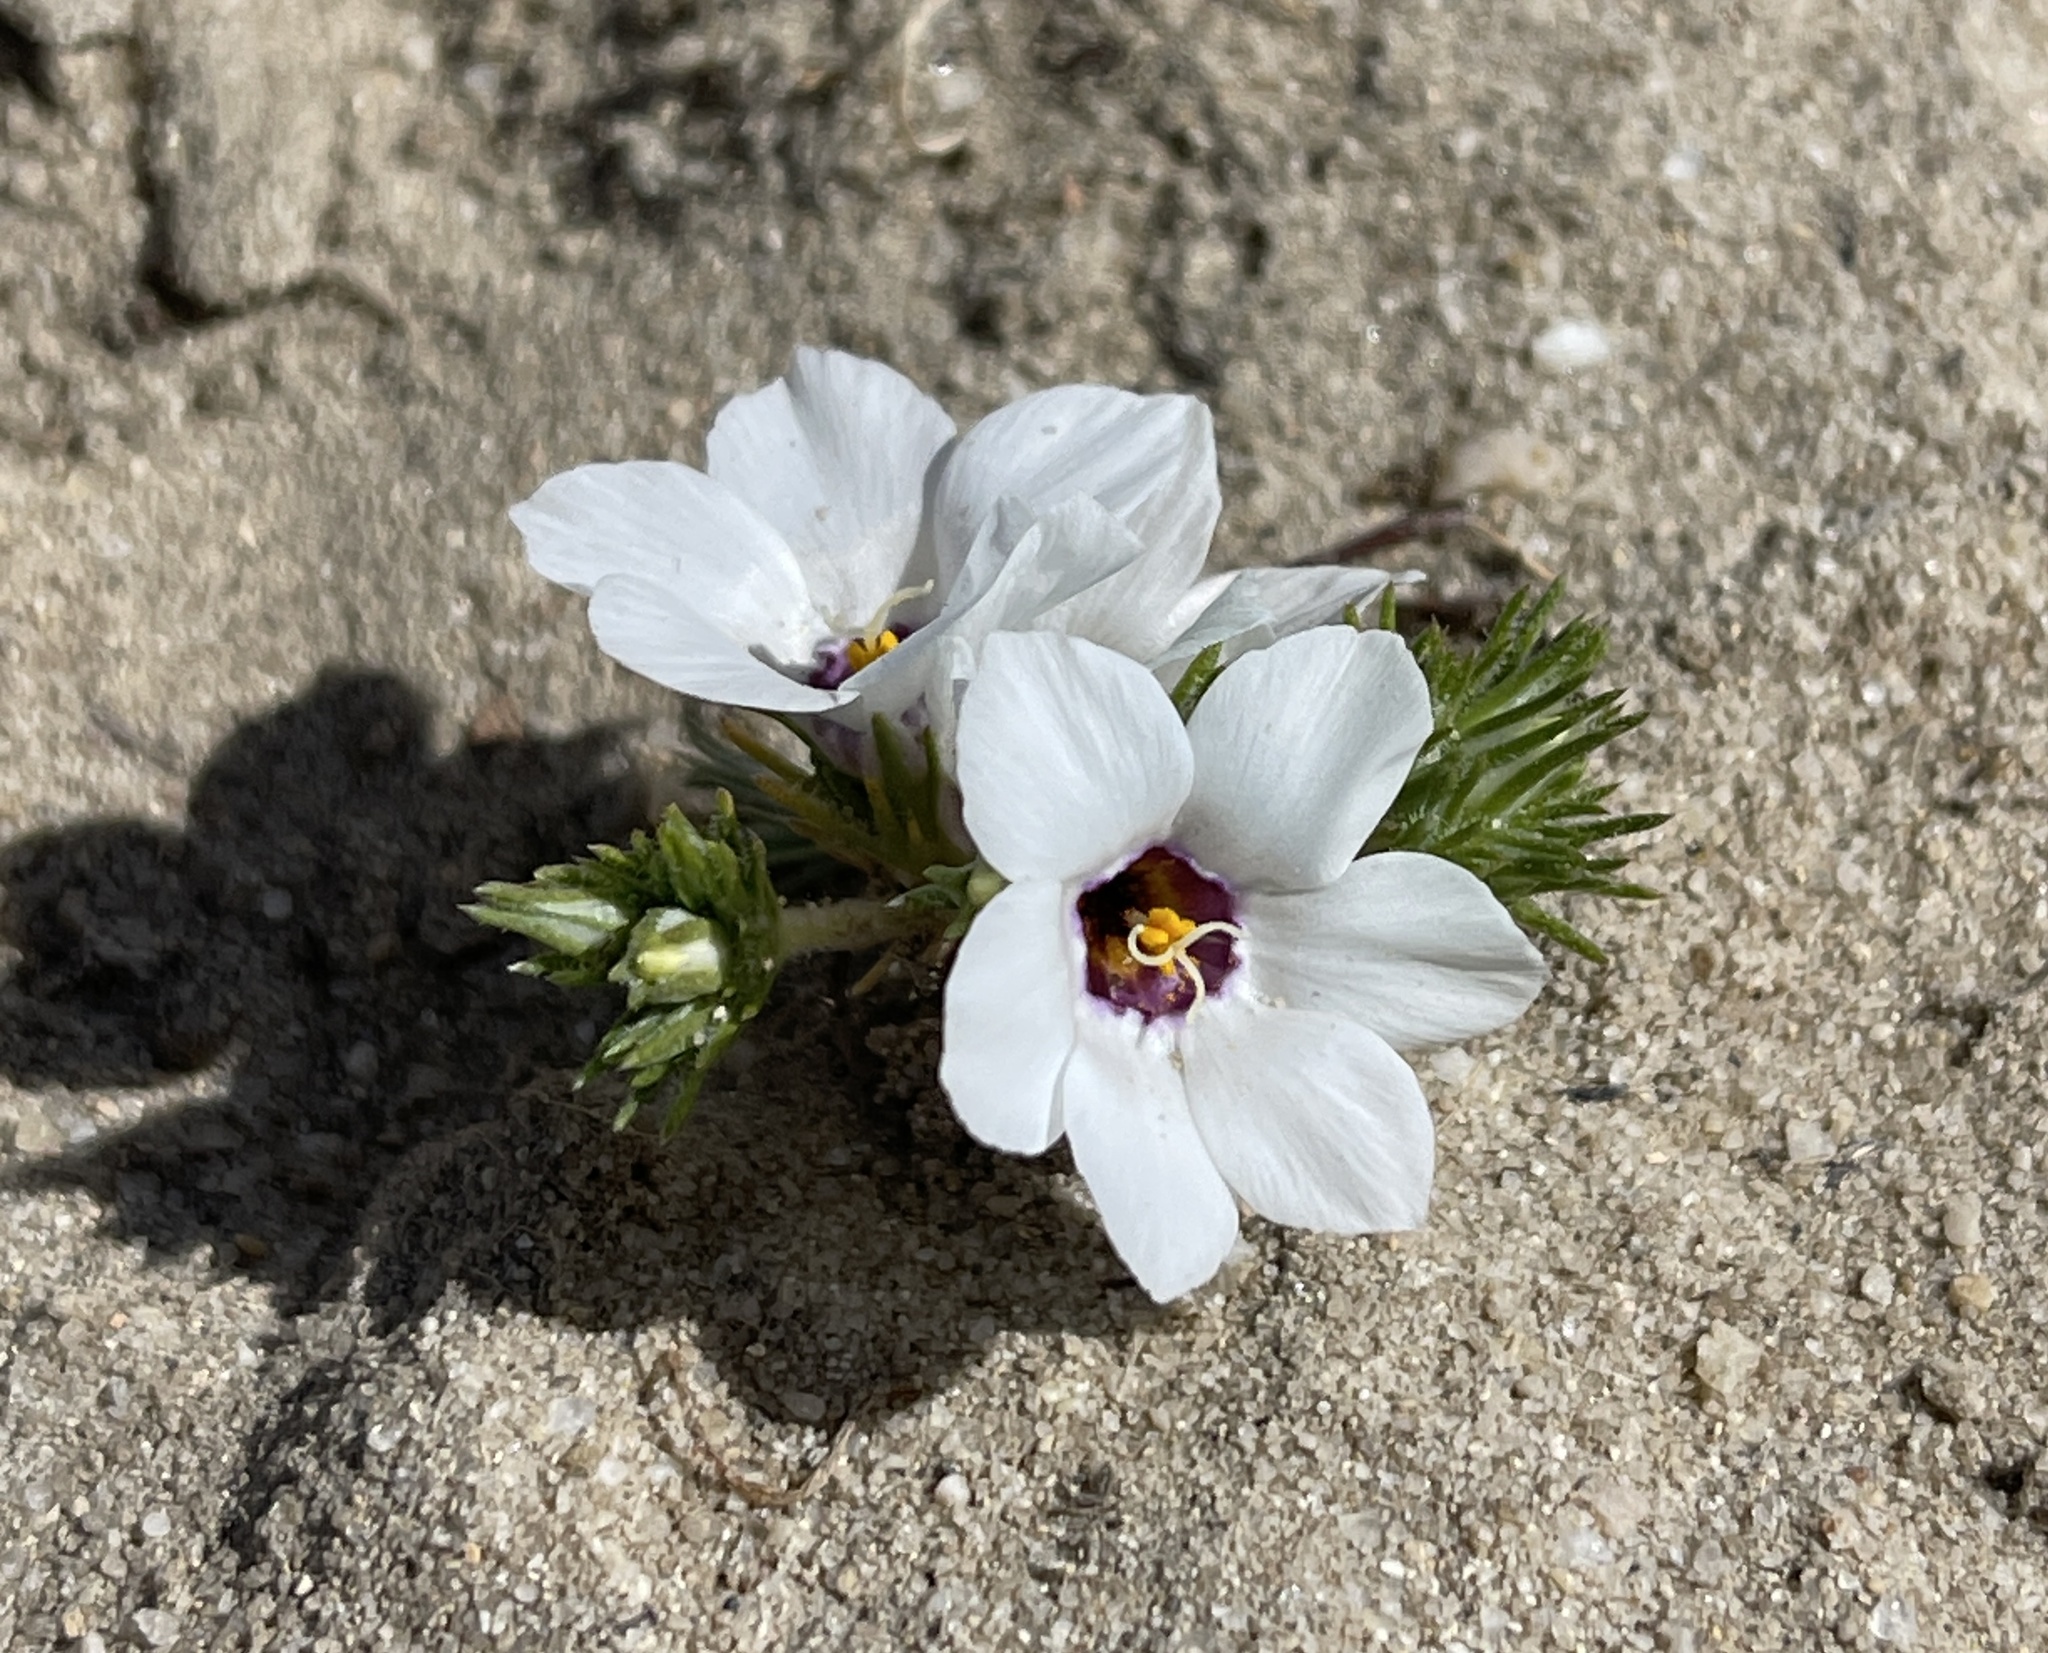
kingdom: Plantae
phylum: Tracheophyta
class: Magnoliopsida
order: Ericales
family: Polemoniaceae
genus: Linanthus
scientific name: Linanthus parryae
